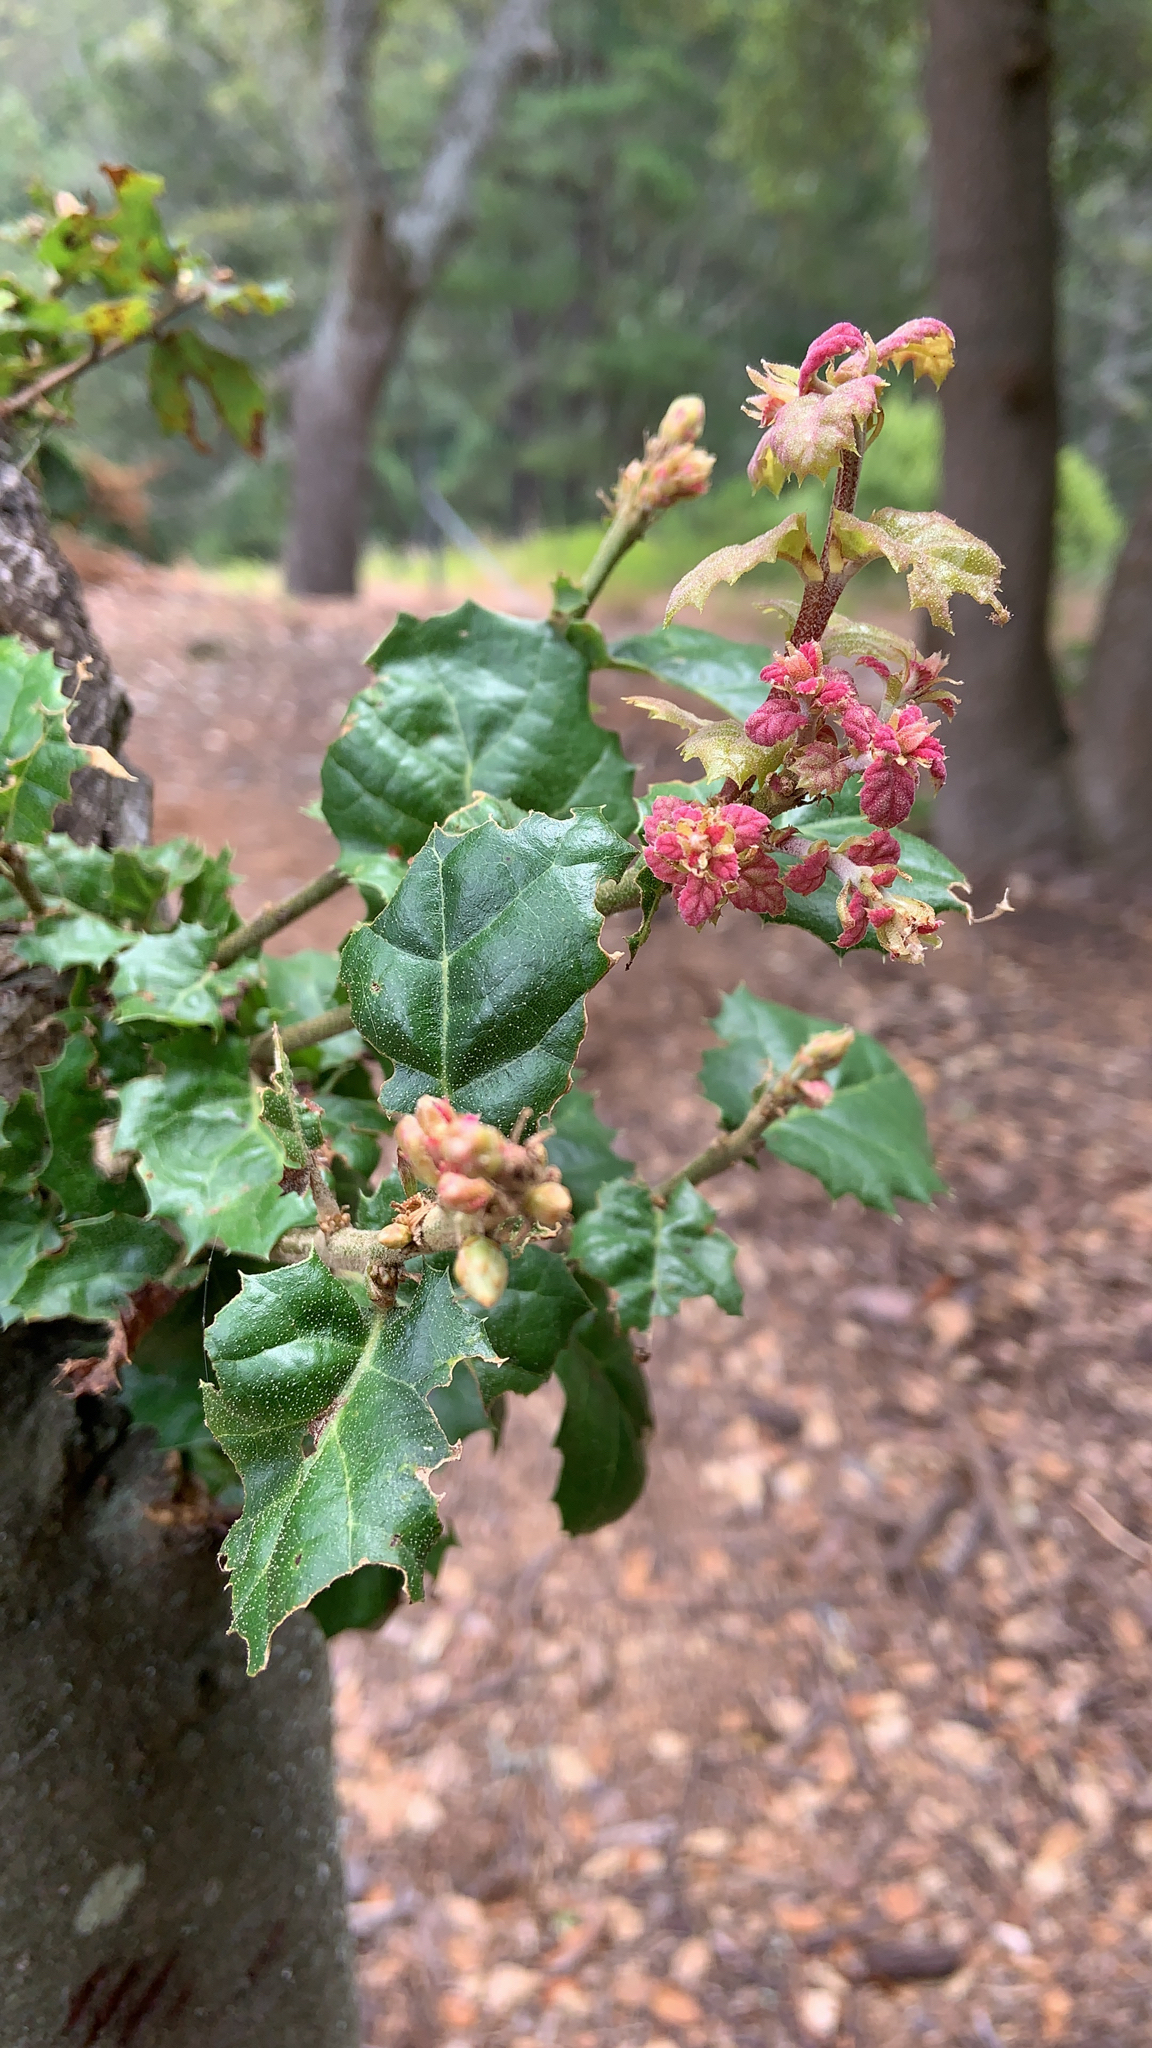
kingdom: Plantae
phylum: Tracheophyta
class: Magnoliopsida
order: Fagales
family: Fagaceae
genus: Quercus
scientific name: Quercus agrifolia
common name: California live oak
